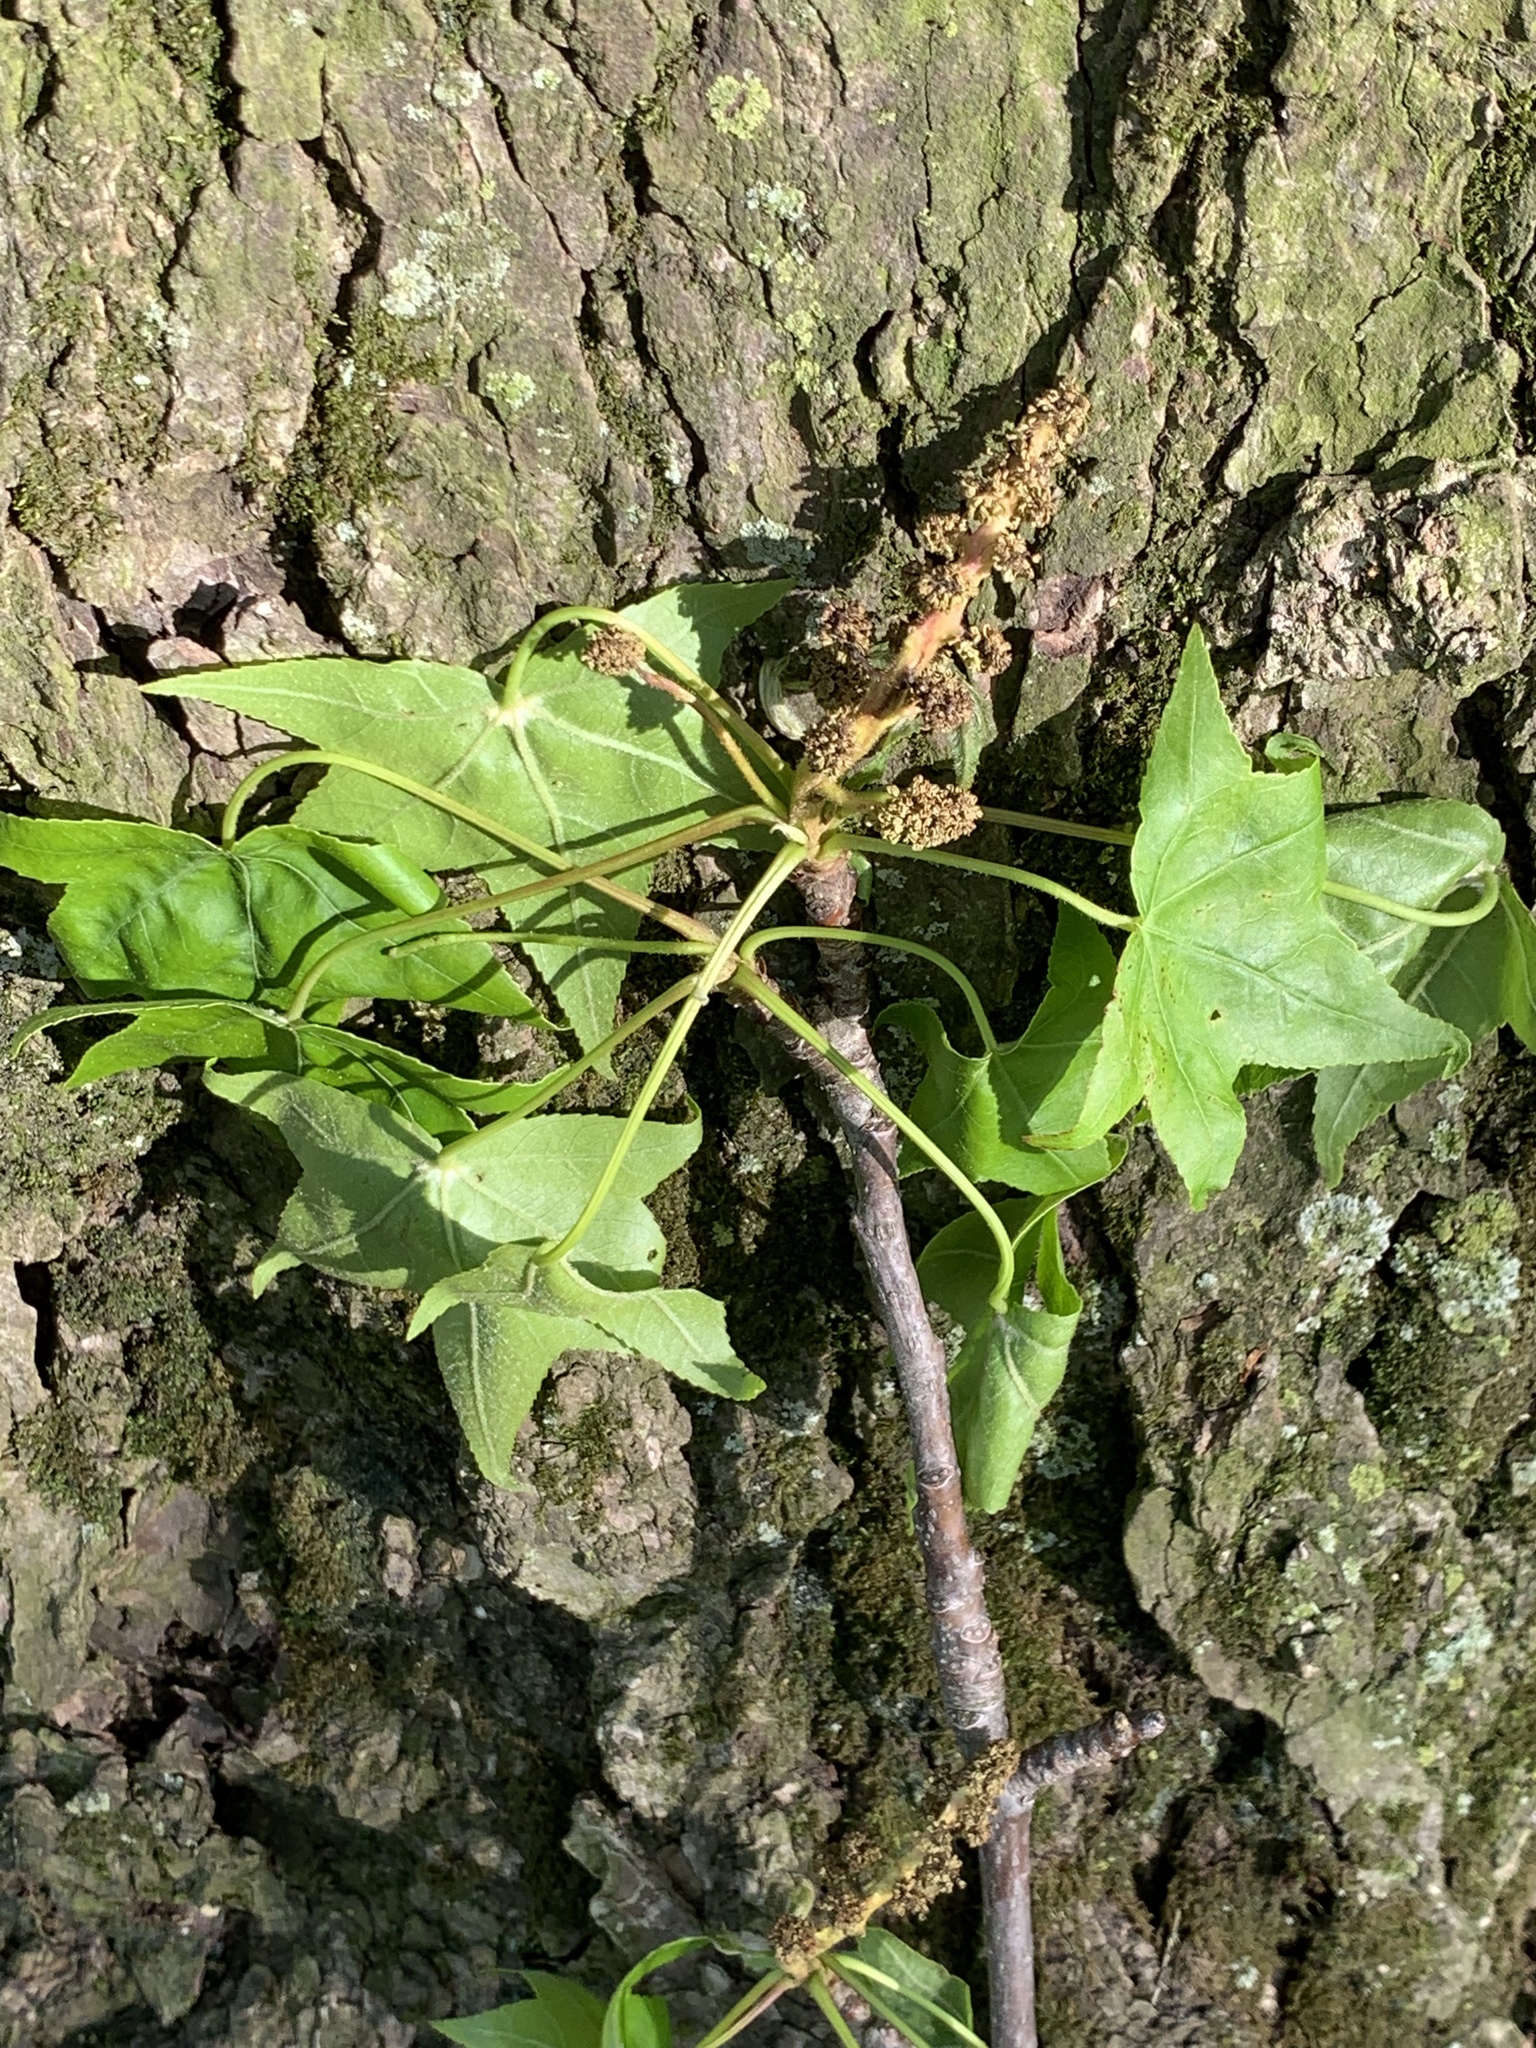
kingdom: Plantae
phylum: Tracheophyta
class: Magnoliopsida
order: Saxifragales
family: Altingiaceae
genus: Liquidambar
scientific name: Liquidambar styraciflua
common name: Sweet gum
